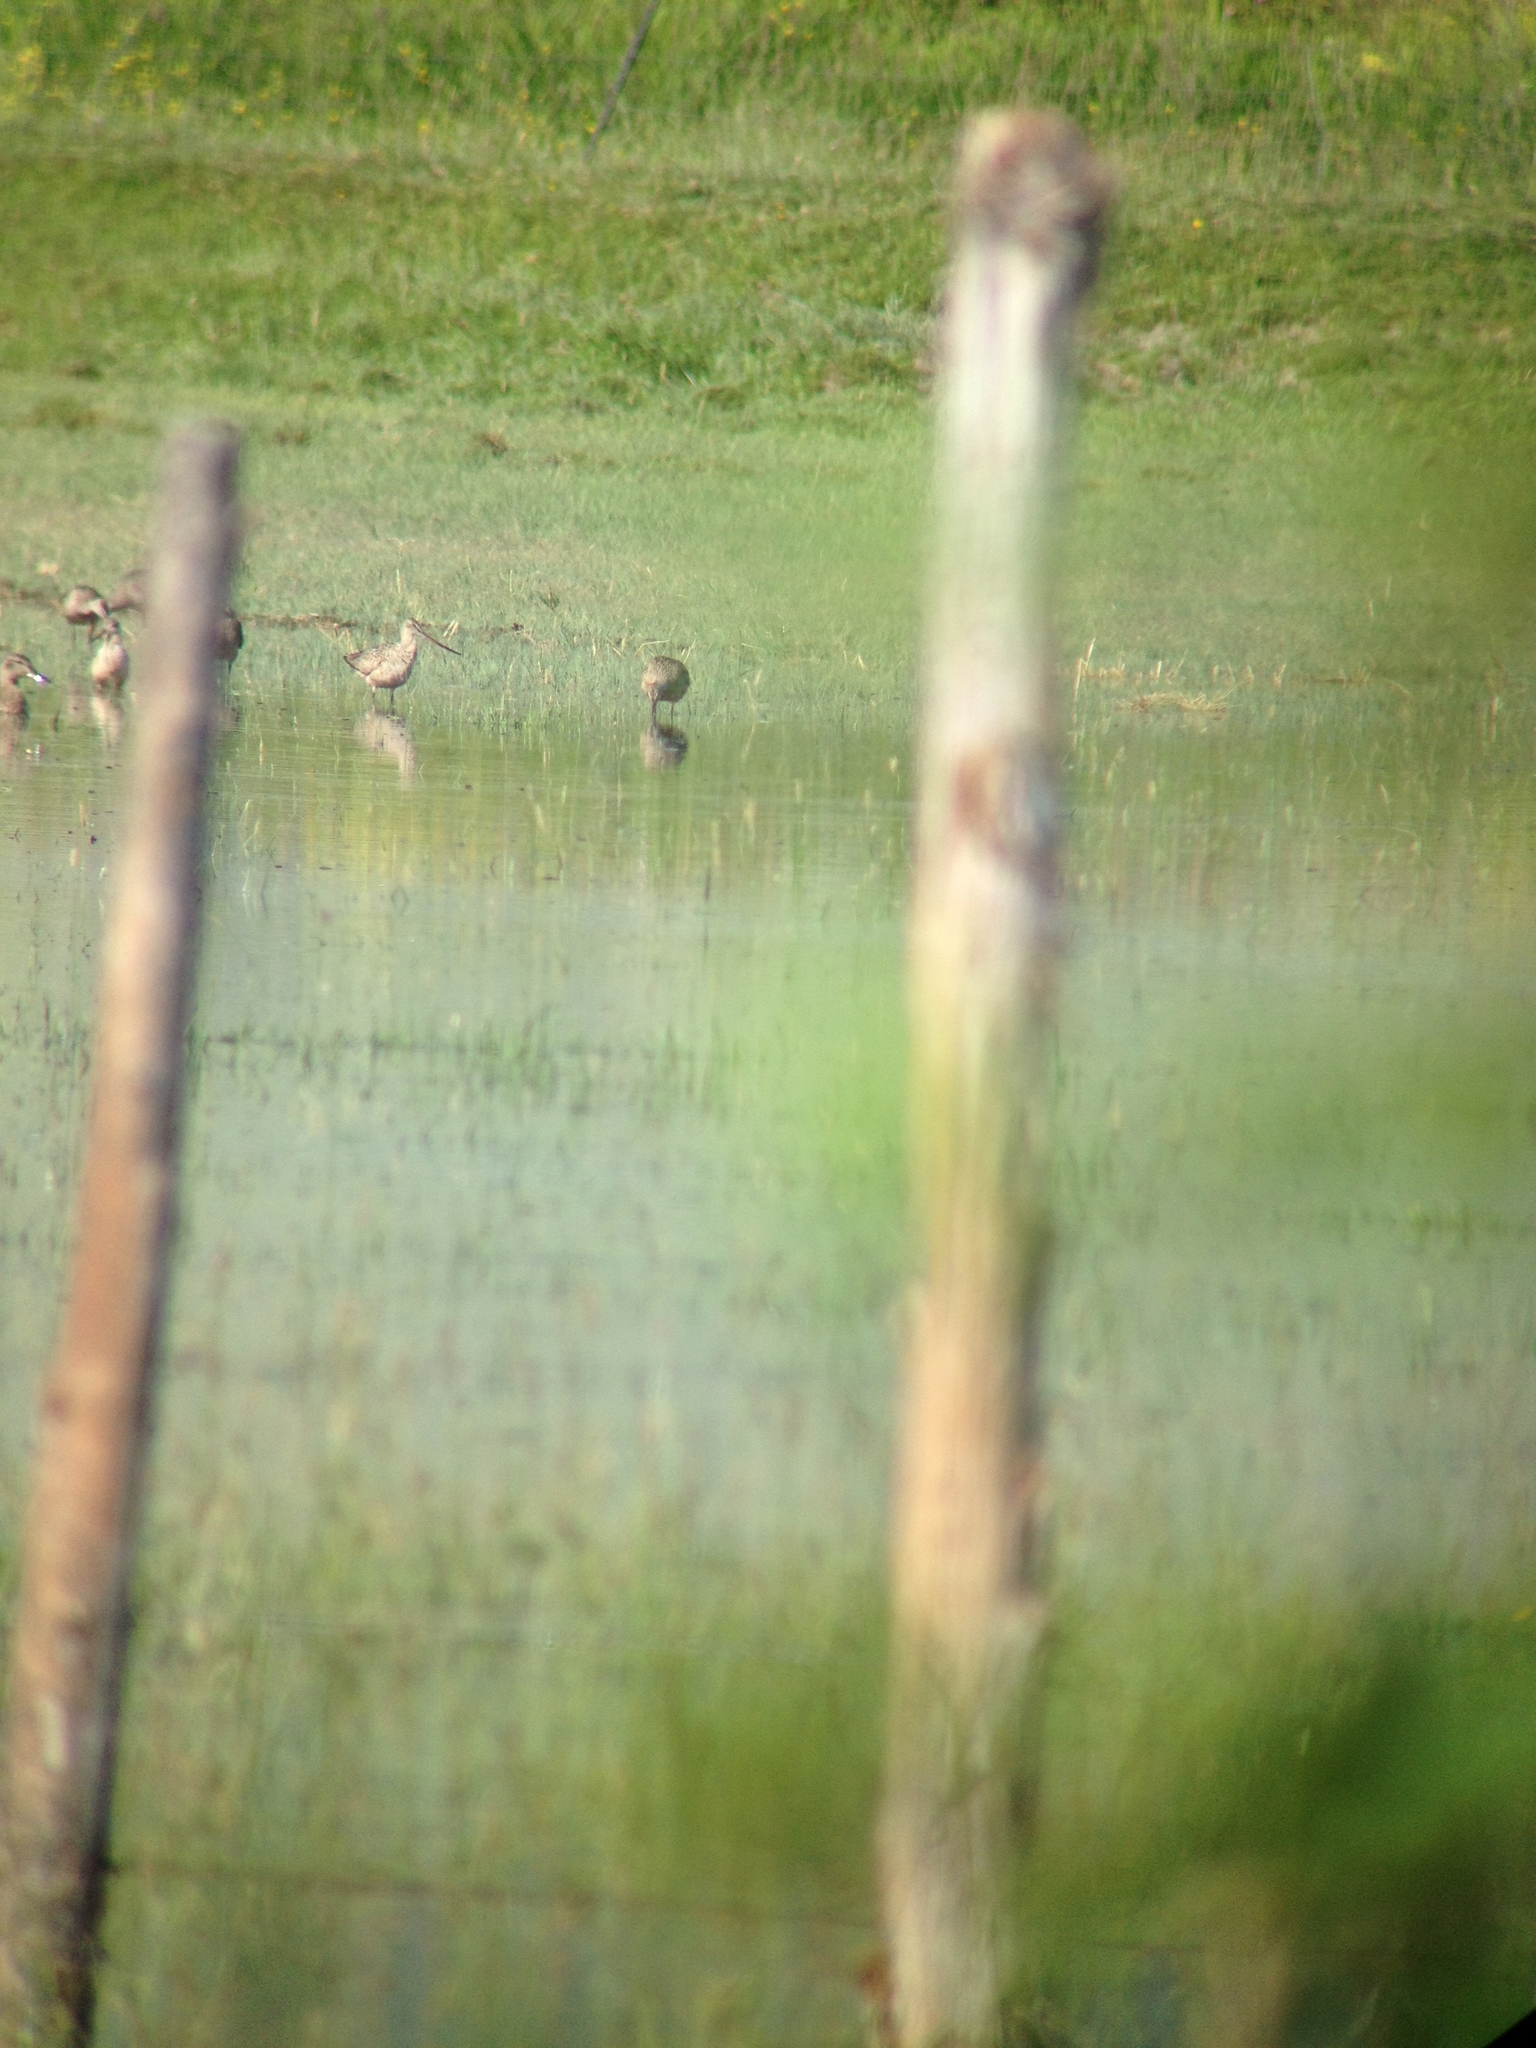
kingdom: Animalia
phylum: Chordata
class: Aves
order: Charadriiformes
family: Scolopacidae
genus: Limosa
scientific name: Limosa fedoa
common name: Marbled godwit
